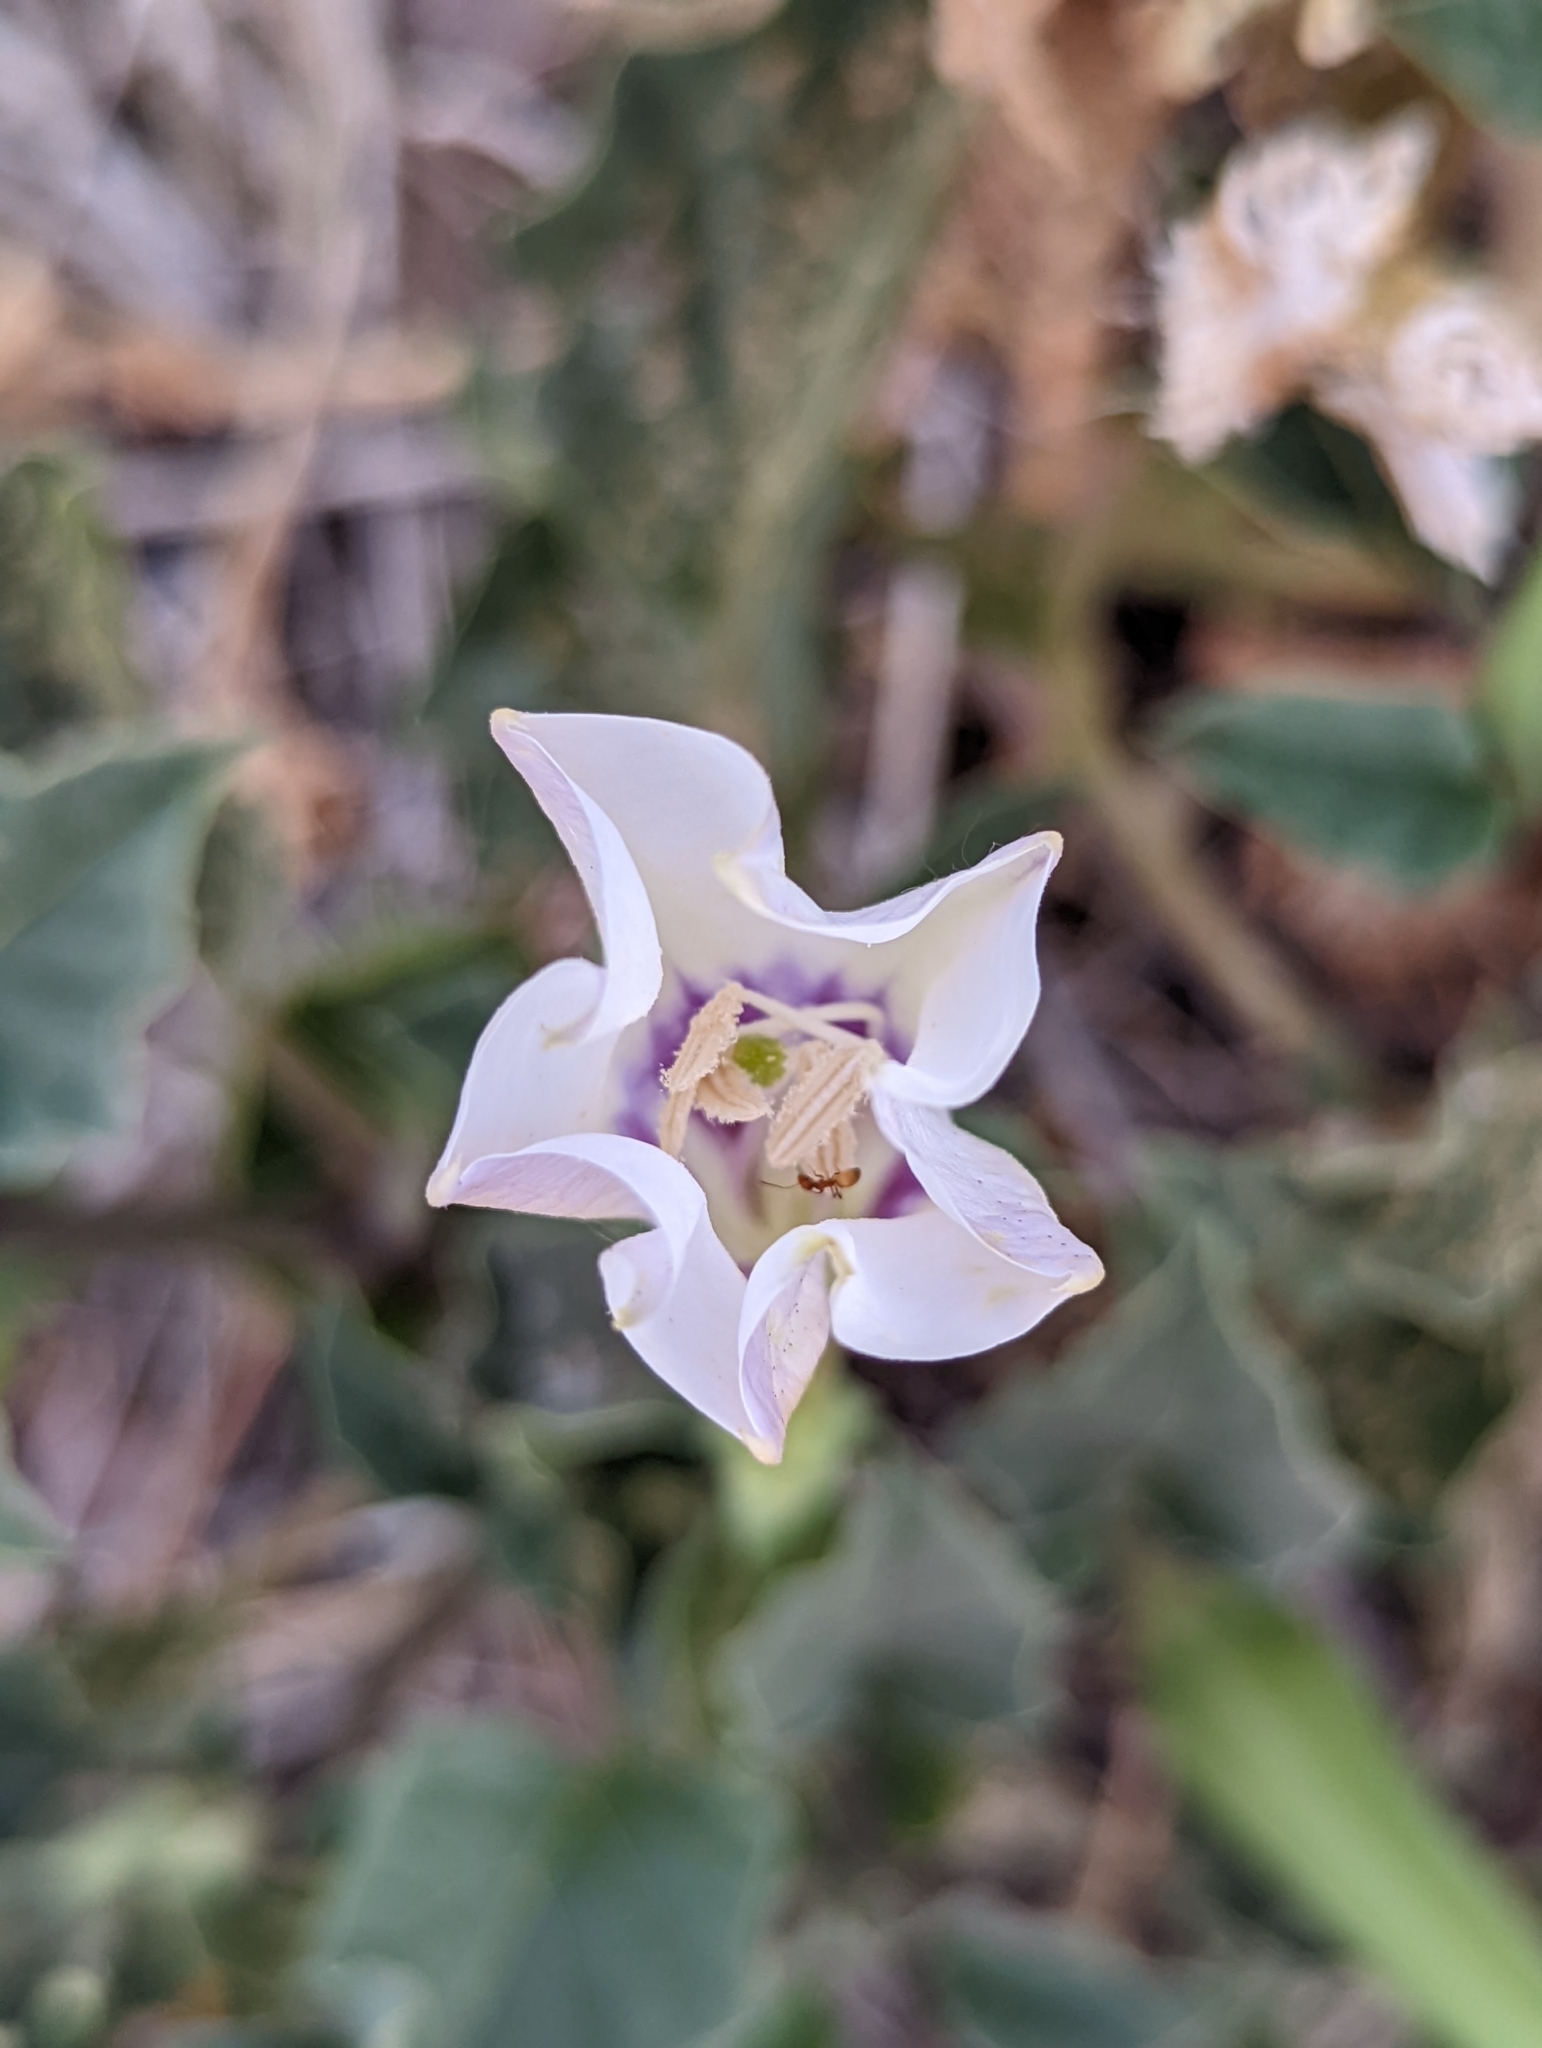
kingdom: Plantae
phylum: Tracheophyta
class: Magnoliopsida
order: Solanales
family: Solanaceae
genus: Datura
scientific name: Datura discolor
